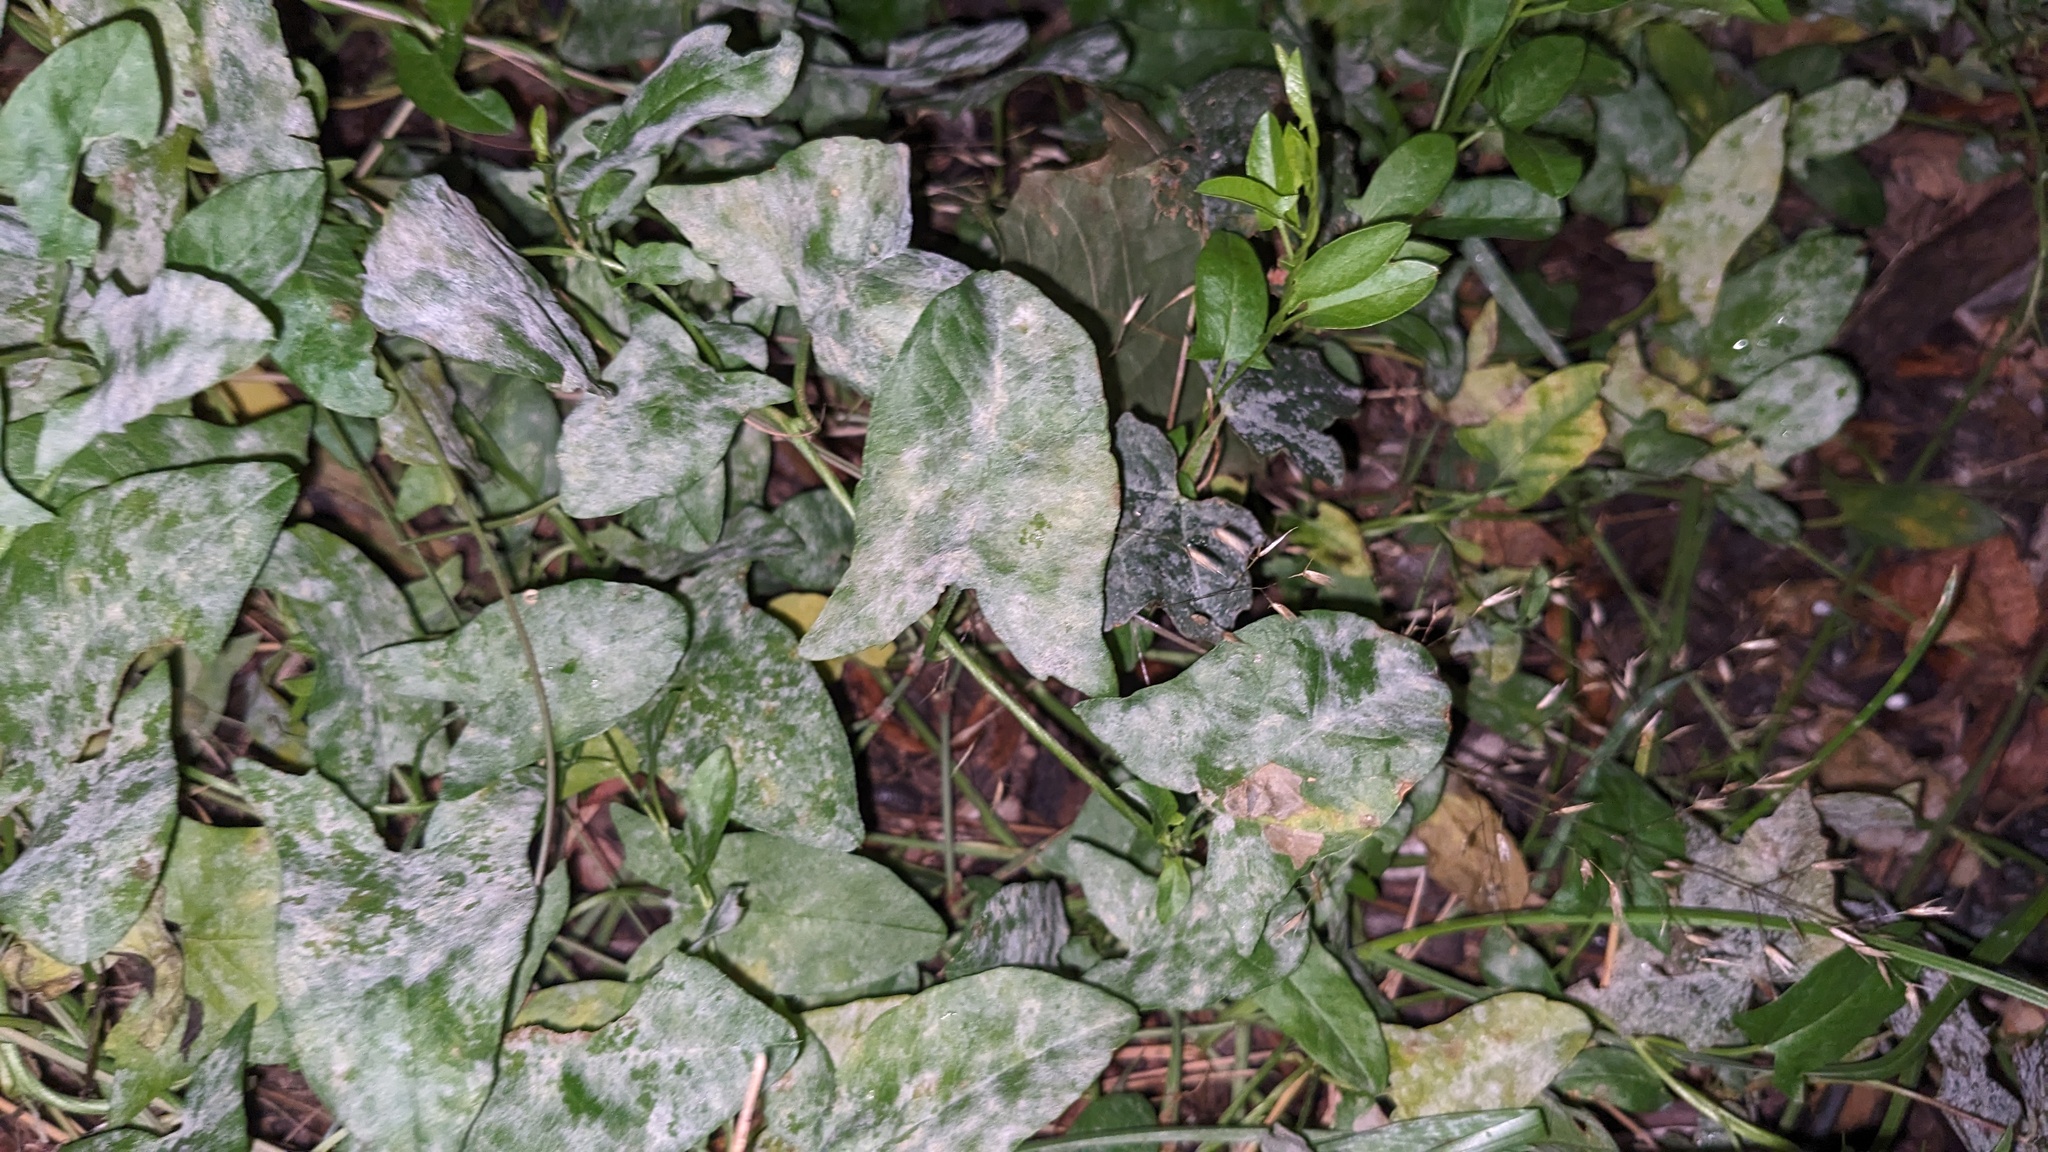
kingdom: Fungi
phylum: Ascomycota
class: Leotiomycetes
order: Helotiales
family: Erysiphaceae
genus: Erysiphe
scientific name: Erysiphe convolvuli
